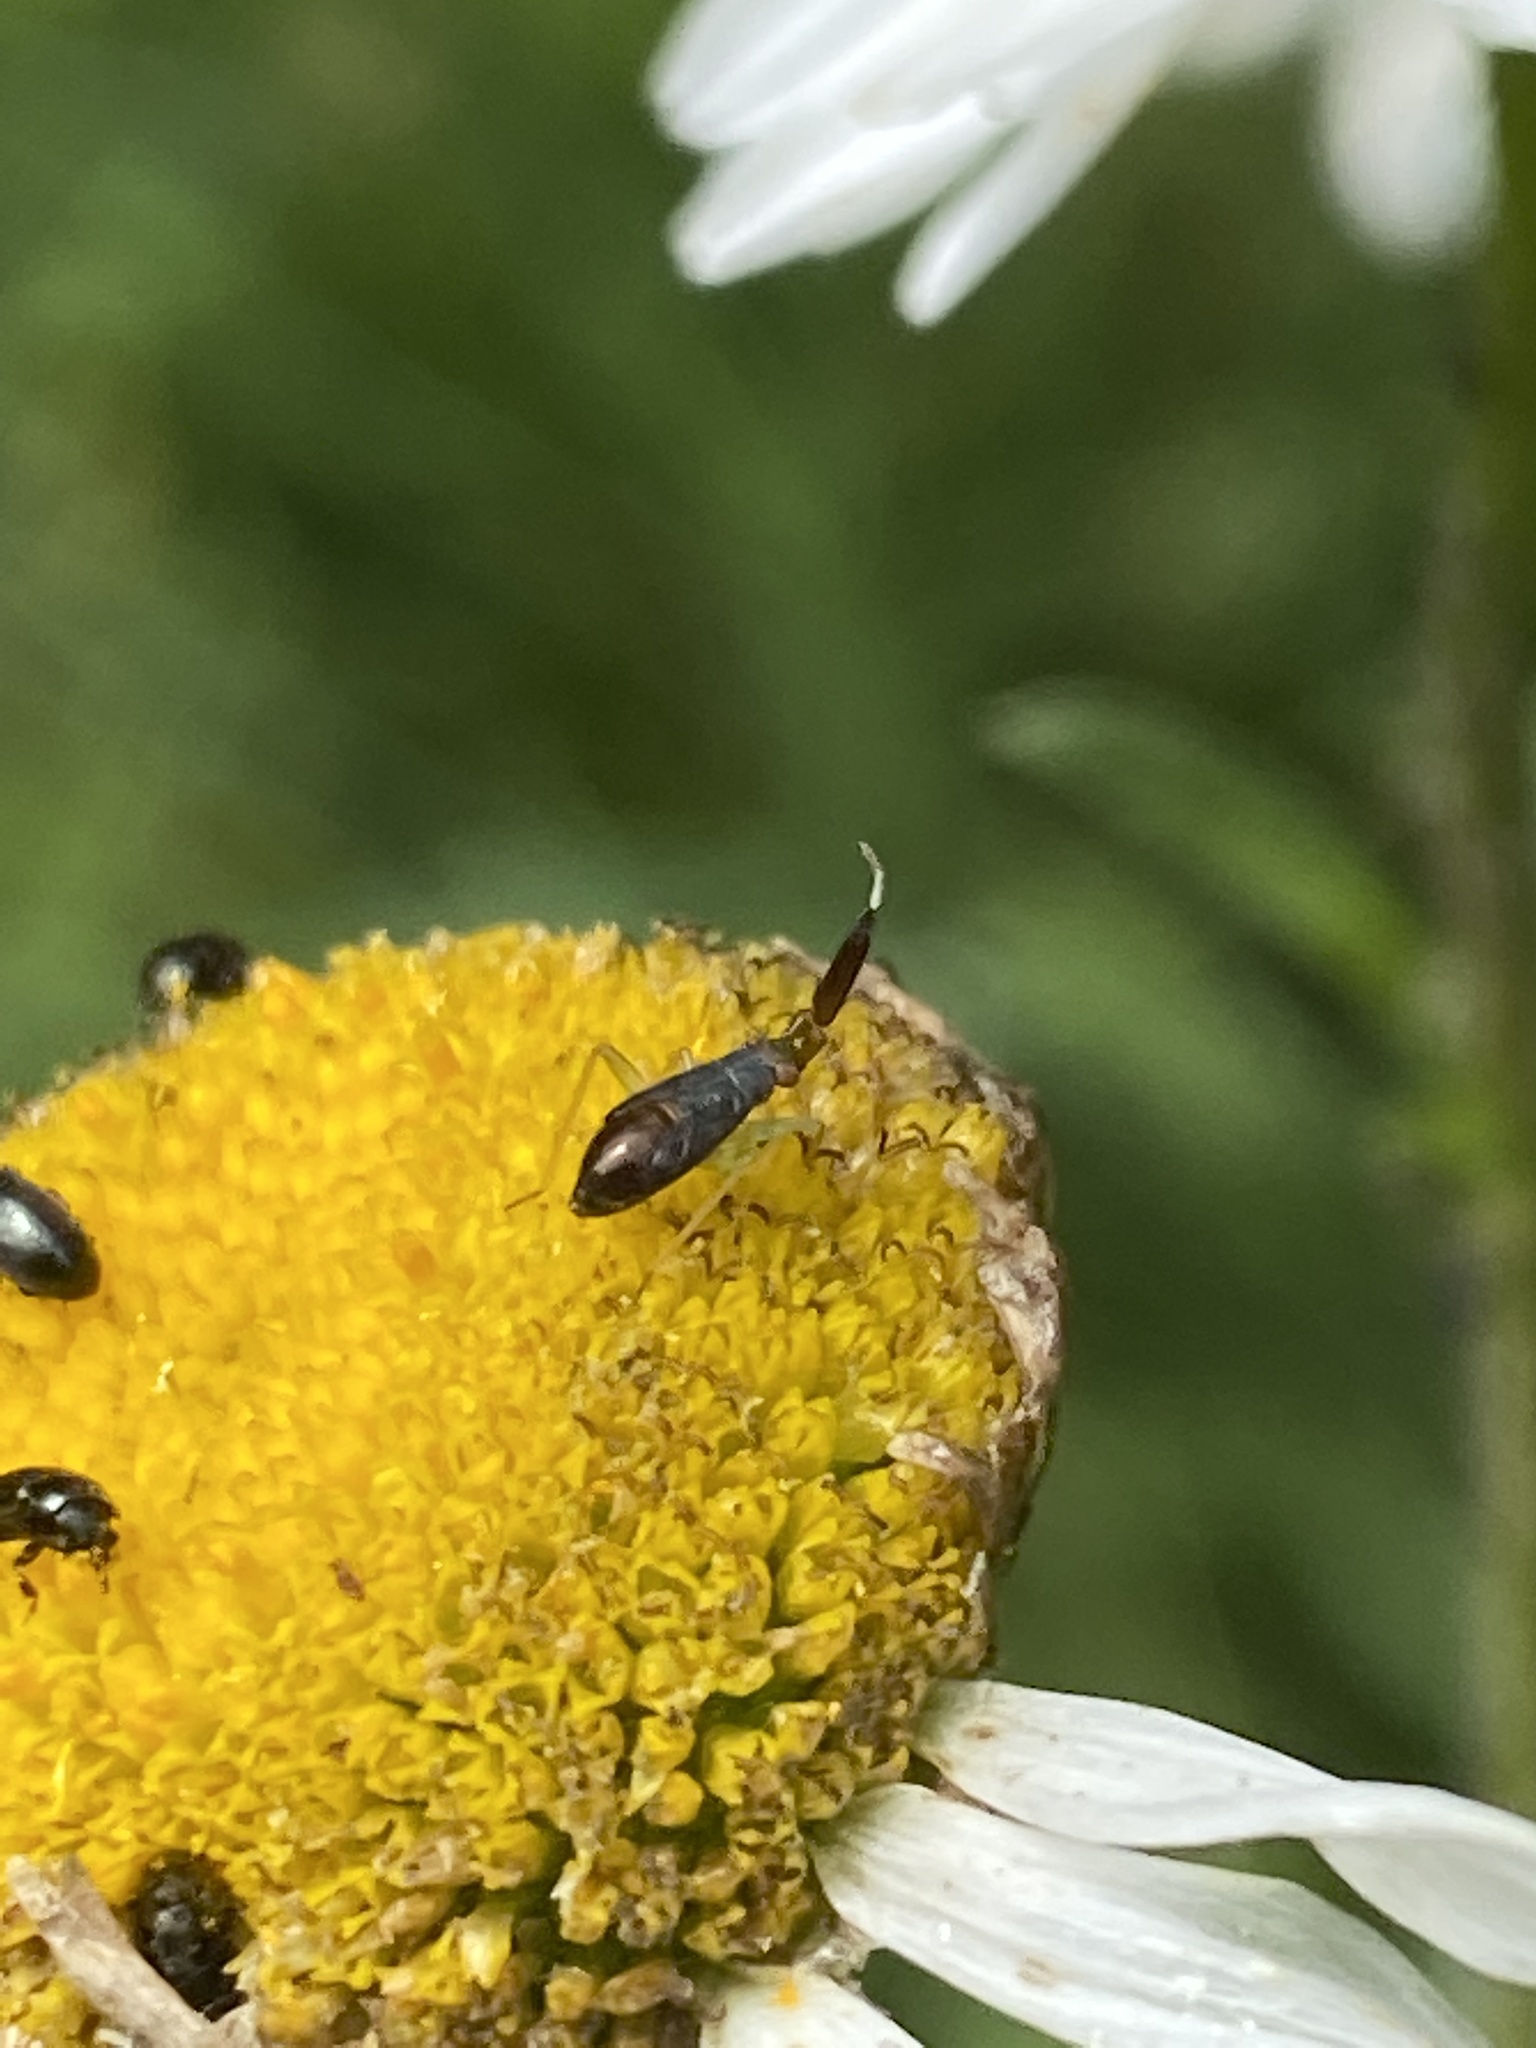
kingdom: Animalia
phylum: Arthropoda
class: Insecta
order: Hemiptera
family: Miridae
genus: Heterotoma
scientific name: Heterotoma planicornis
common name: Plant bug
